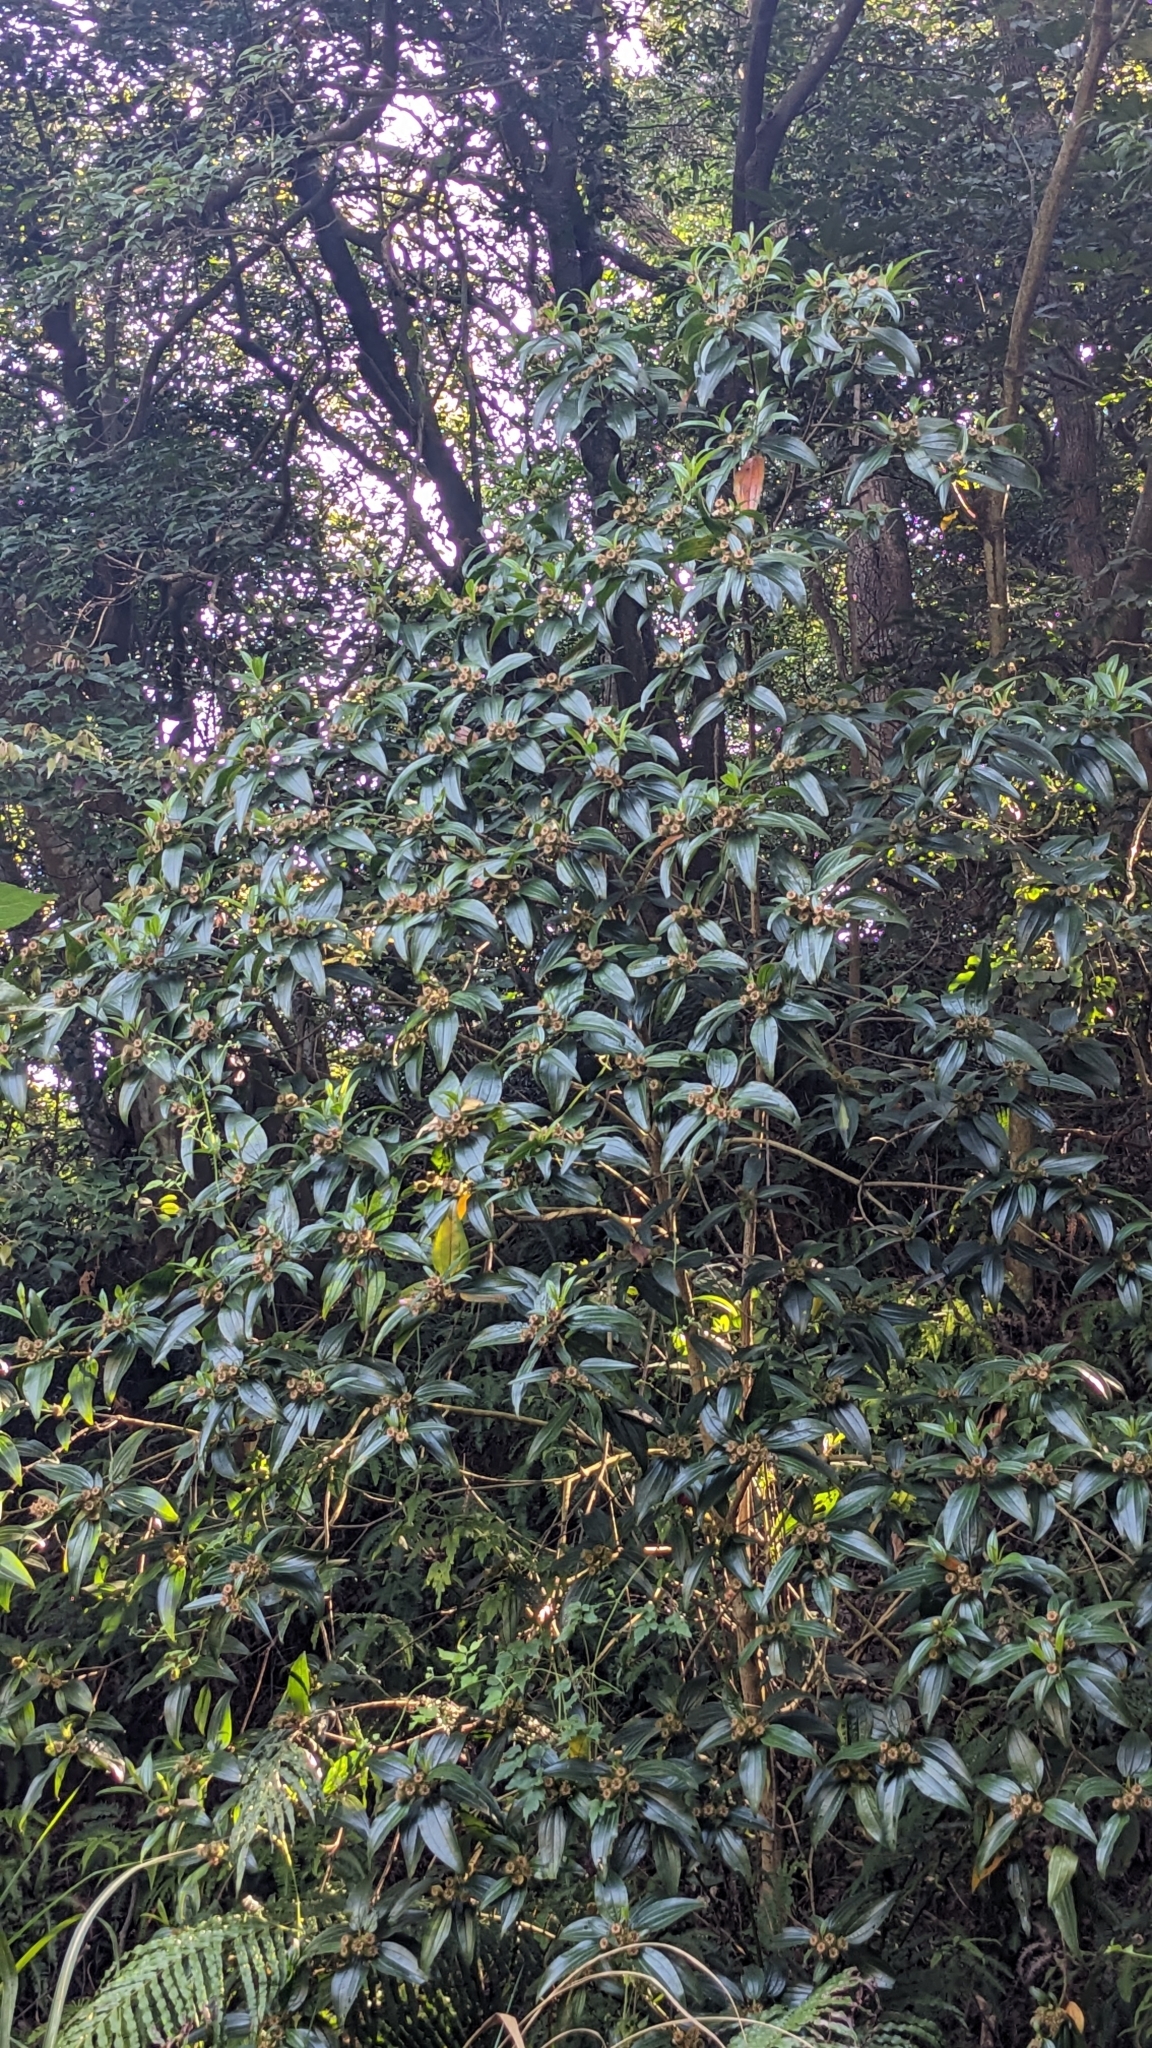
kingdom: Plantae
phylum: Tracheophyta
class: Magnoliopsida
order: Myrtales
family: Melastomataceae
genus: Melastoma
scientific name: Melastoma sanguineum
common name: Red melastome
